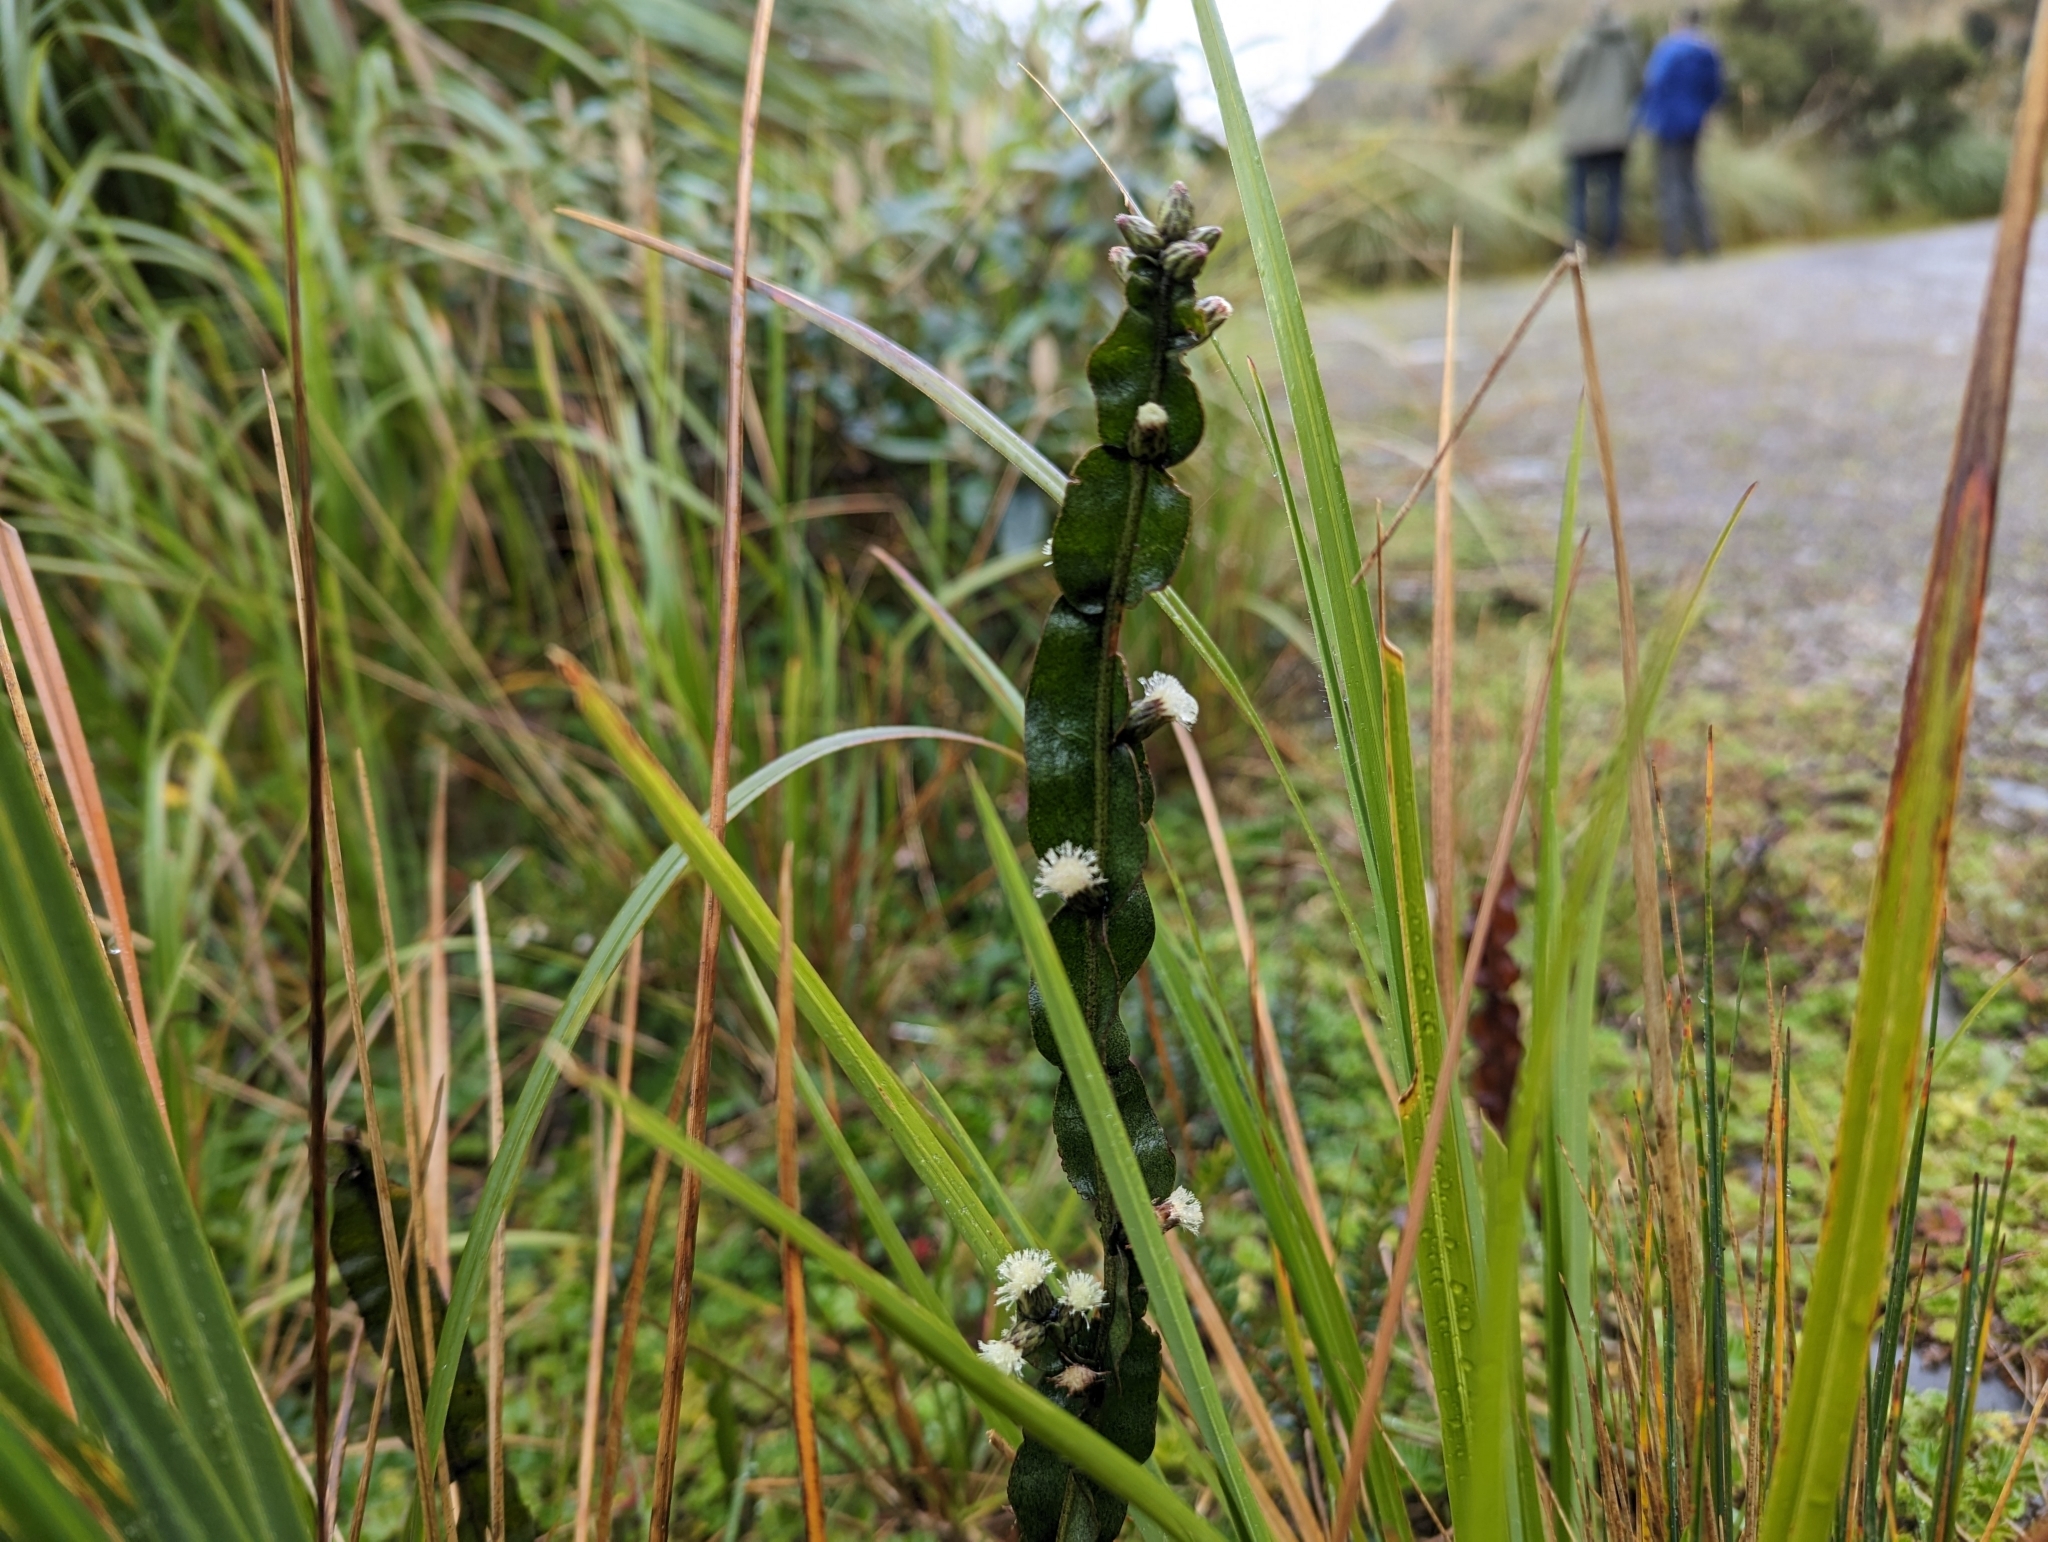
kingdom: Plantae
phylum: Tracheophyta
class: Magnoliopsida
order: Asterales
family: Asteraceae
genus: Baccharis
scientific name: Baccharis genistelloides
